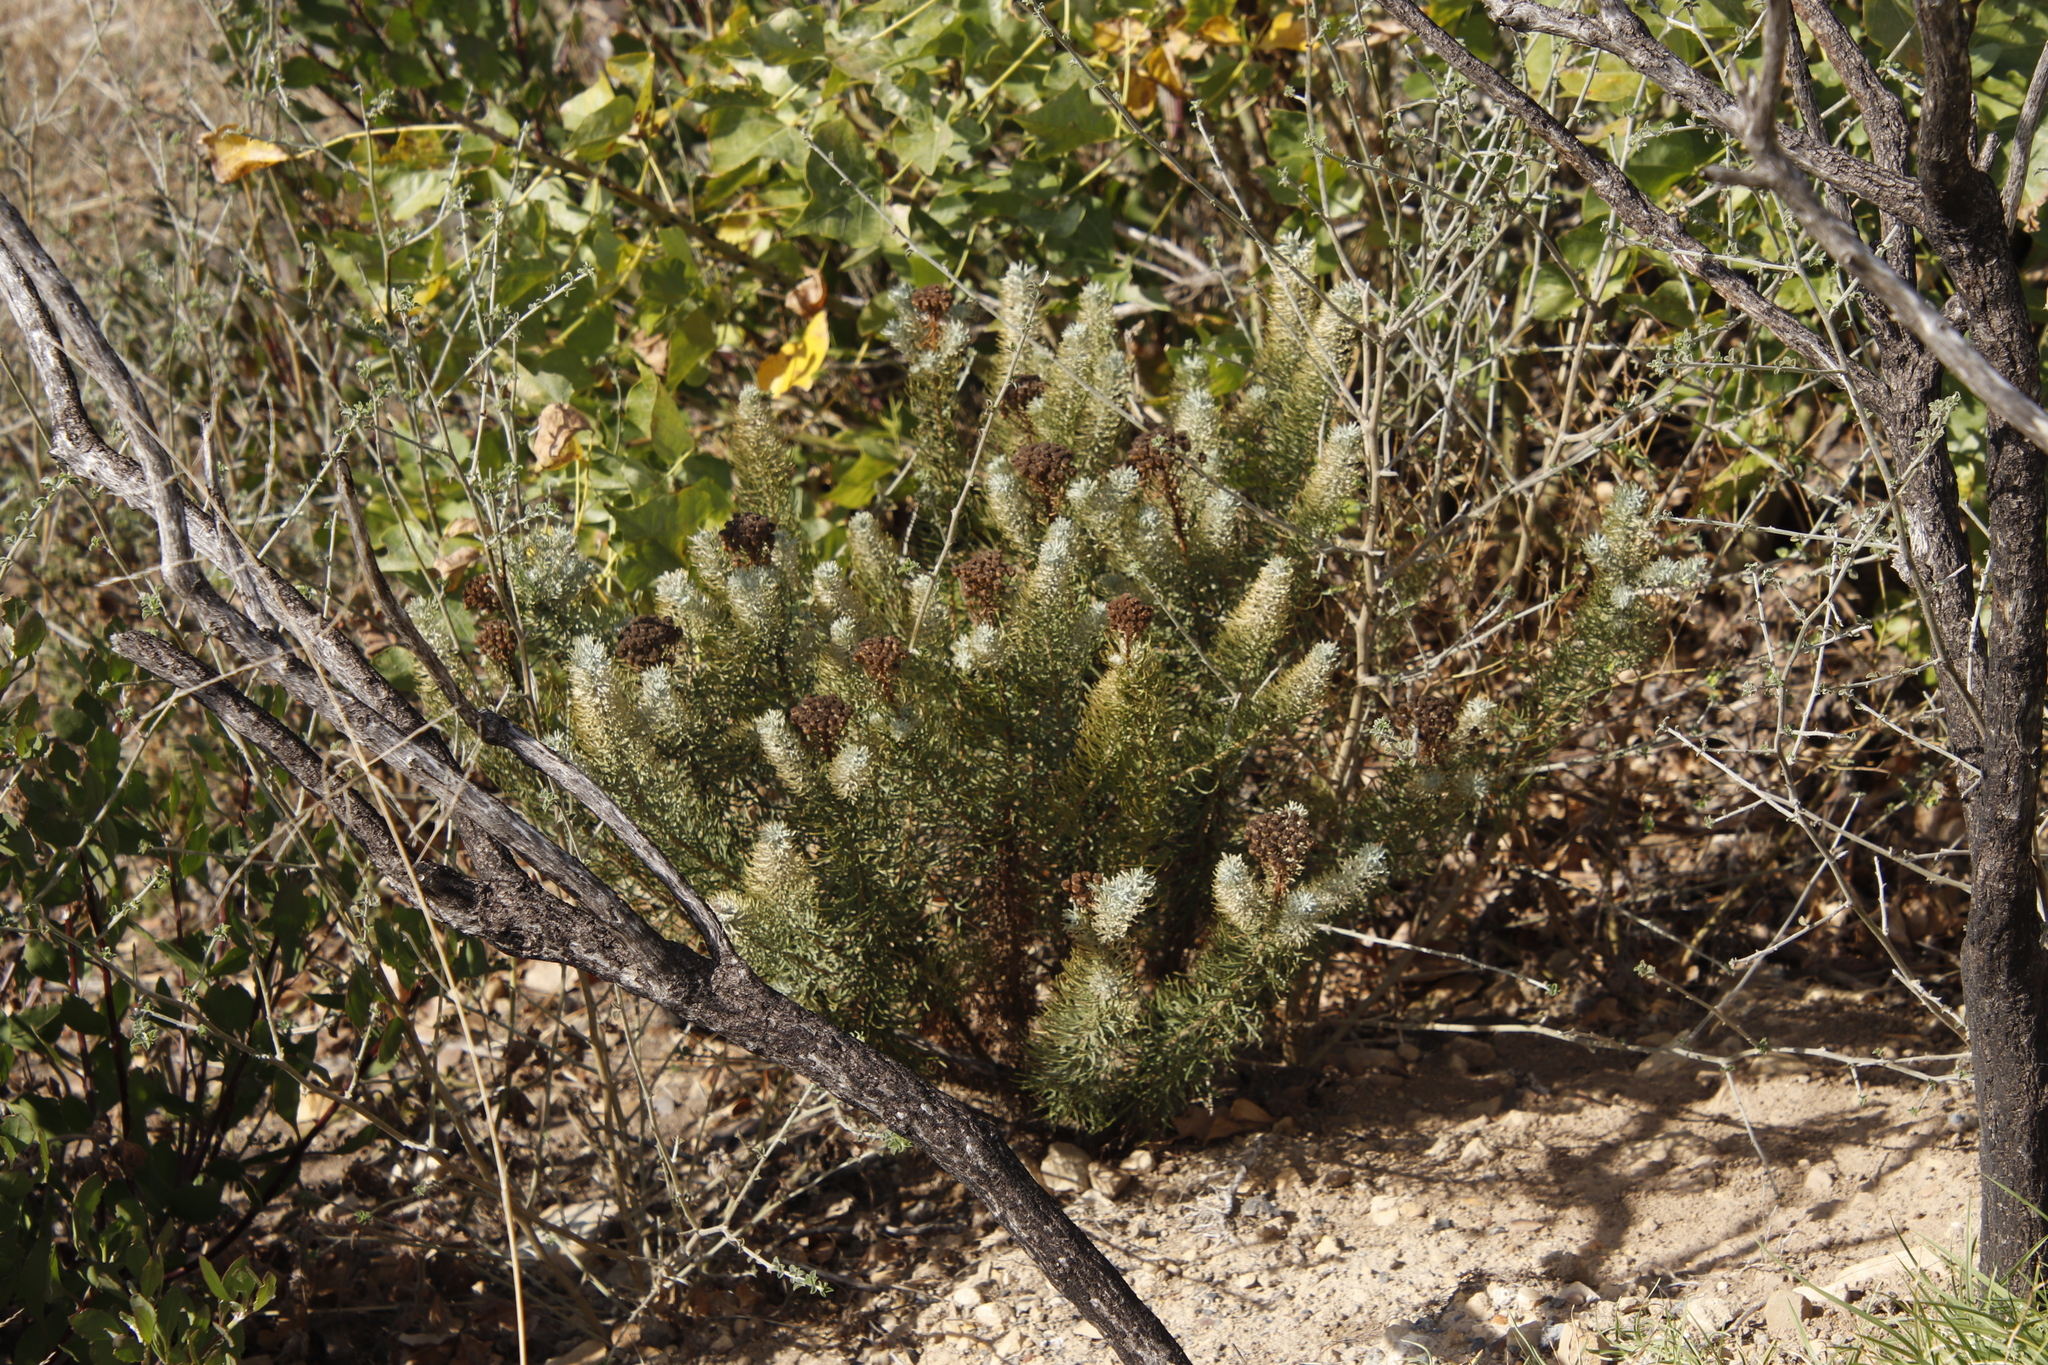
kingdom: Plantae
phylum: Tracheophyta
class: Magnoliopsida
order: Asterales
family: Asteraceae
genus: Athanasia
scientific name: Athanasia crithmifolia
